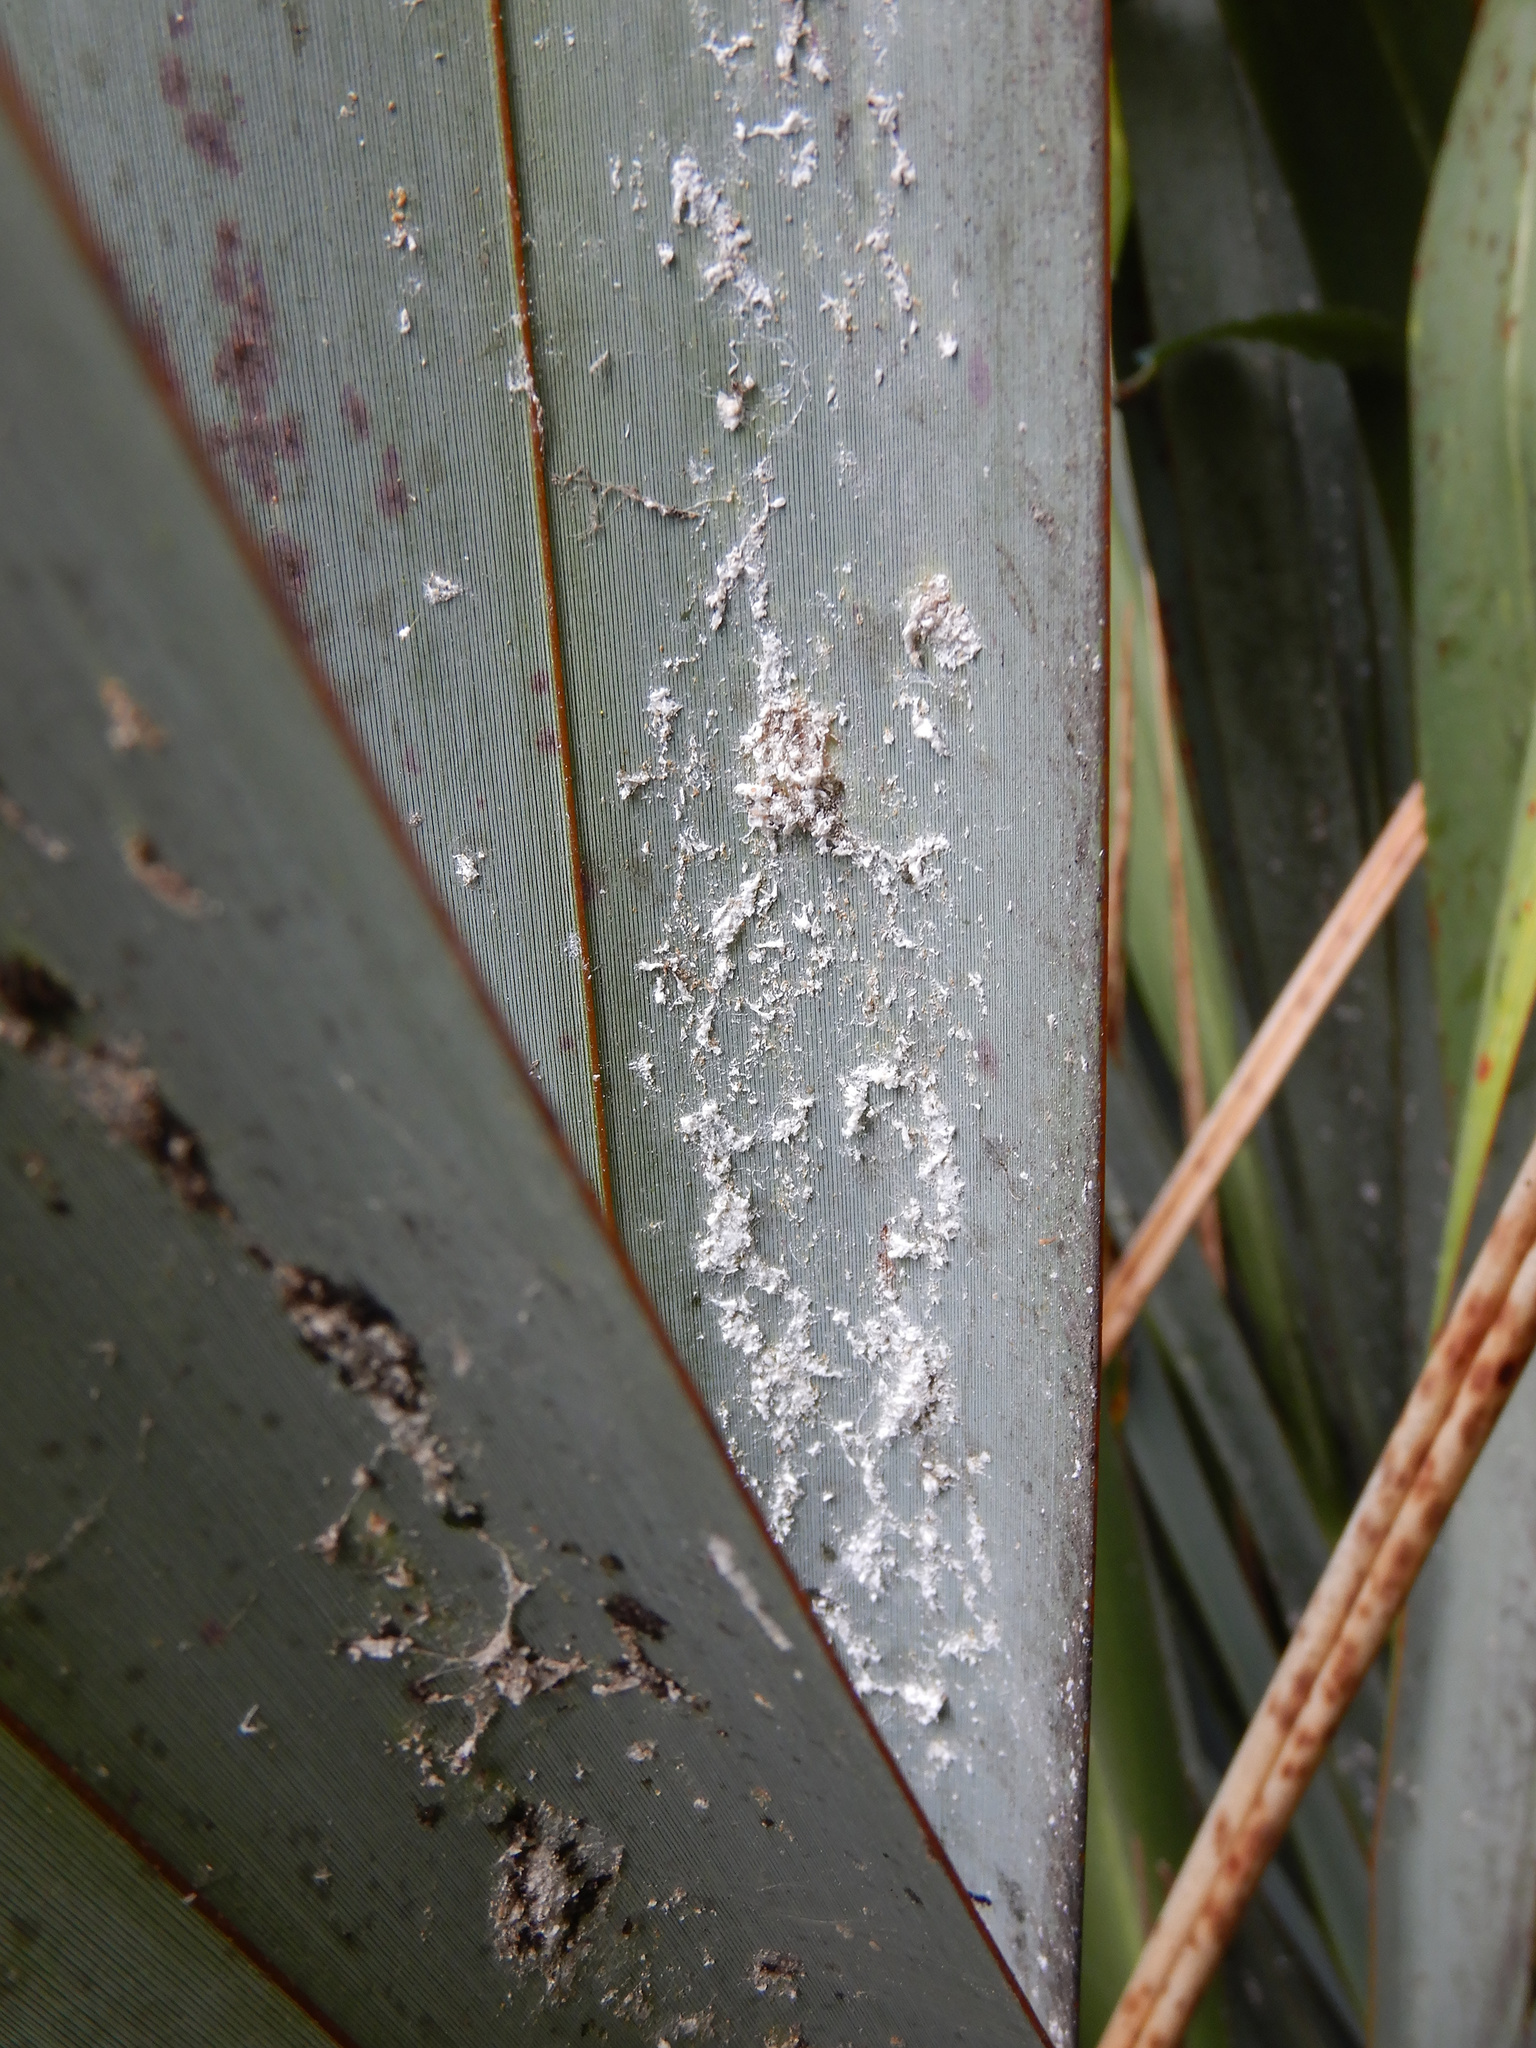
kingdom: Animalia
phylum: Arthropoda
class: Insecta
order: Hemiptera
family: Diaspididae
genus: Poliaspis
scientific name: Poliaspis floccosa
